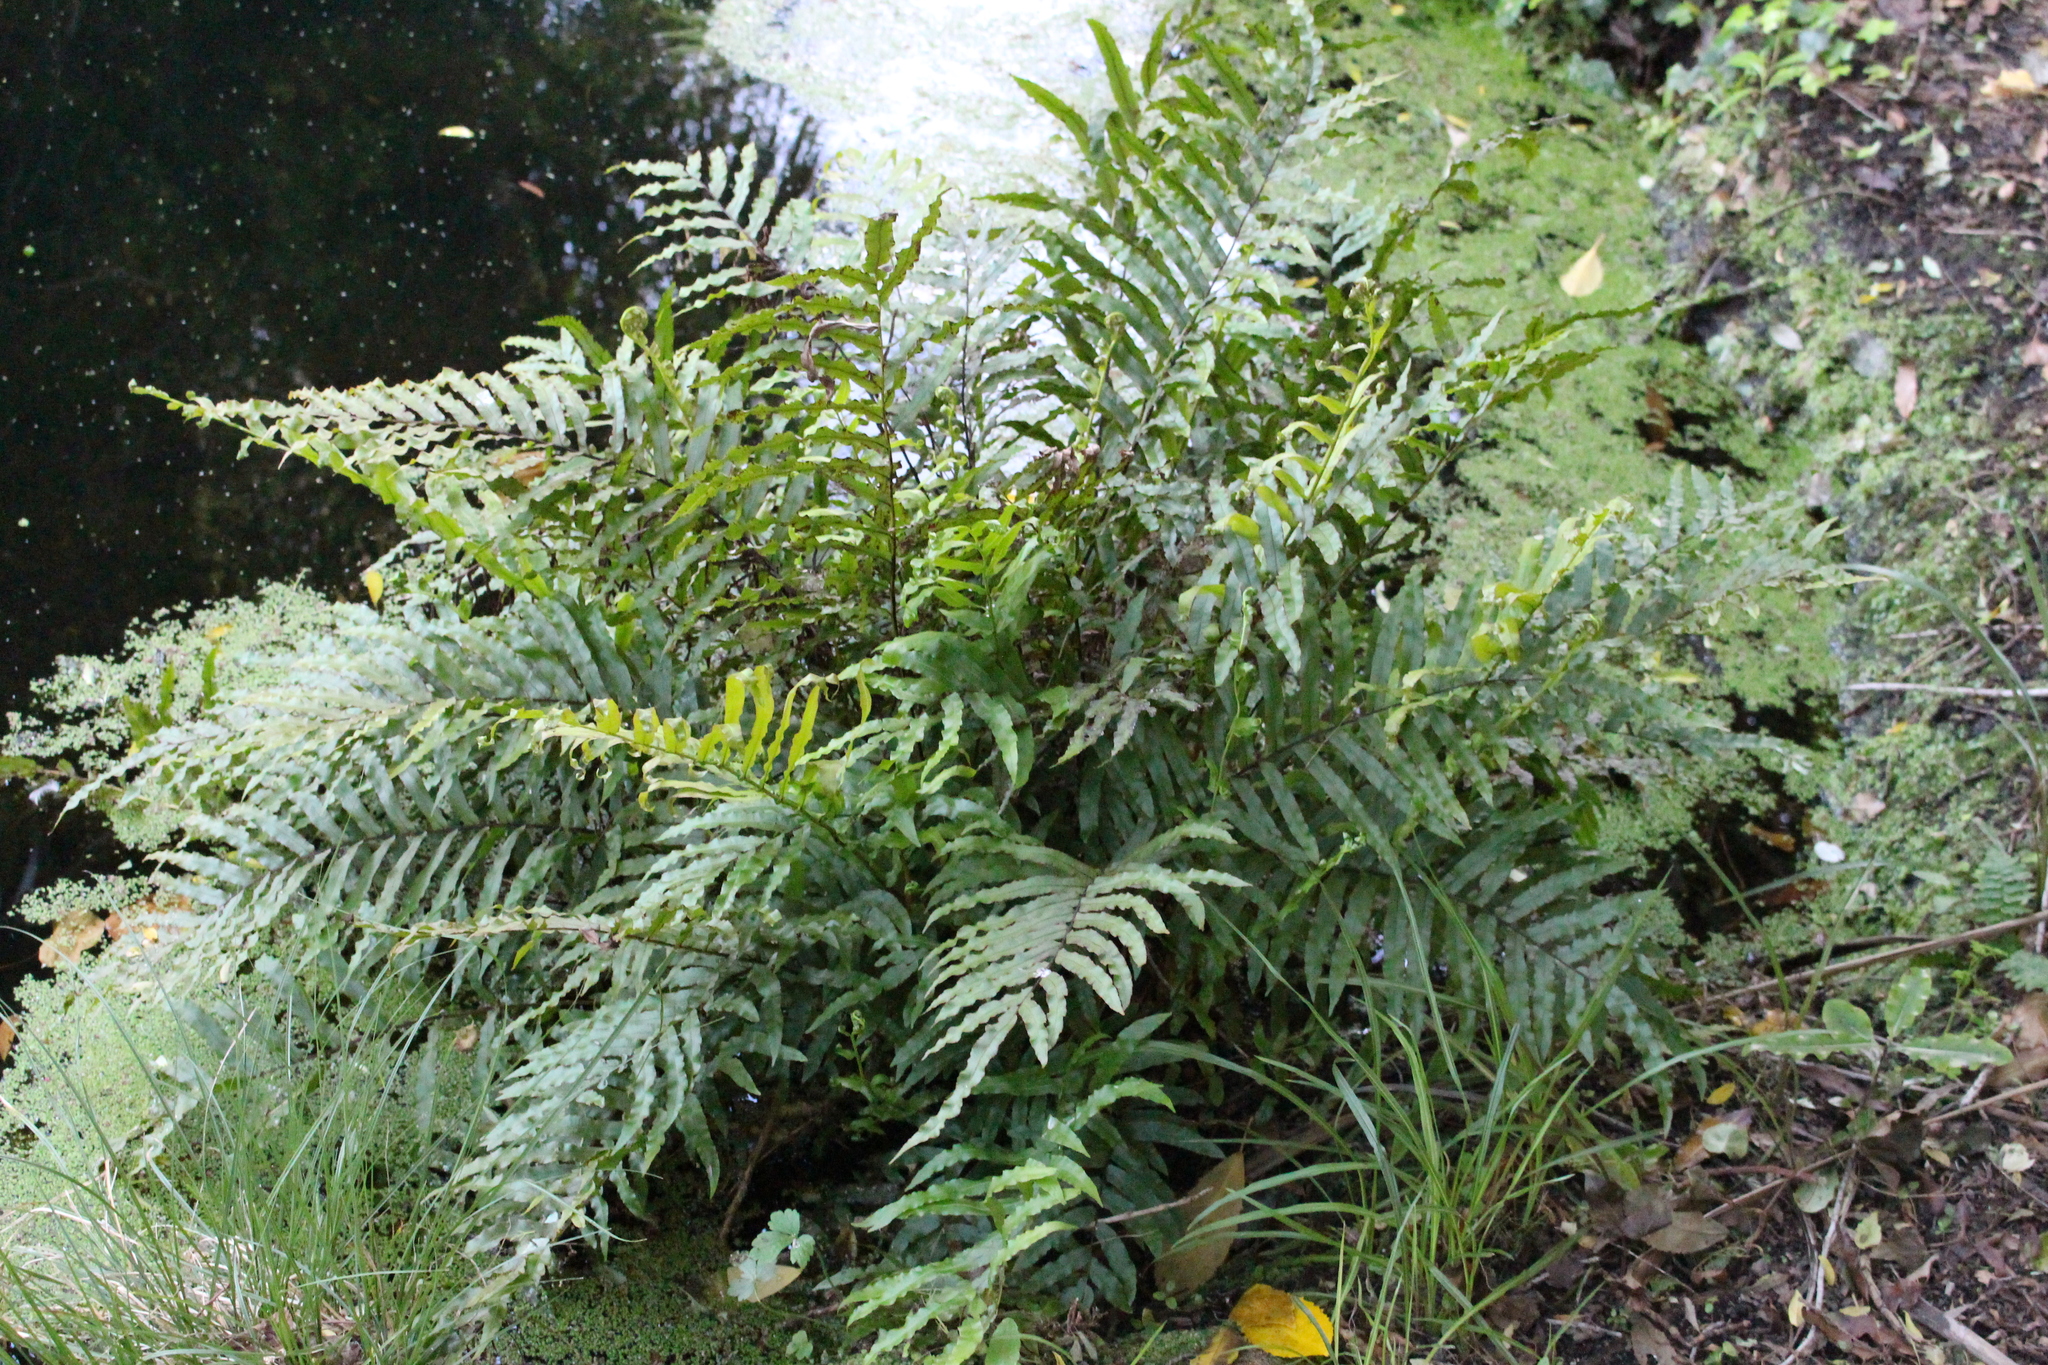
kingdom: Plantae
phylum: Tracheophyta
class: Polypodiopsida
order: Polypodiales
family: Blechnaceae
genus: Parablechnum
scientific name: Parablechnum minus
